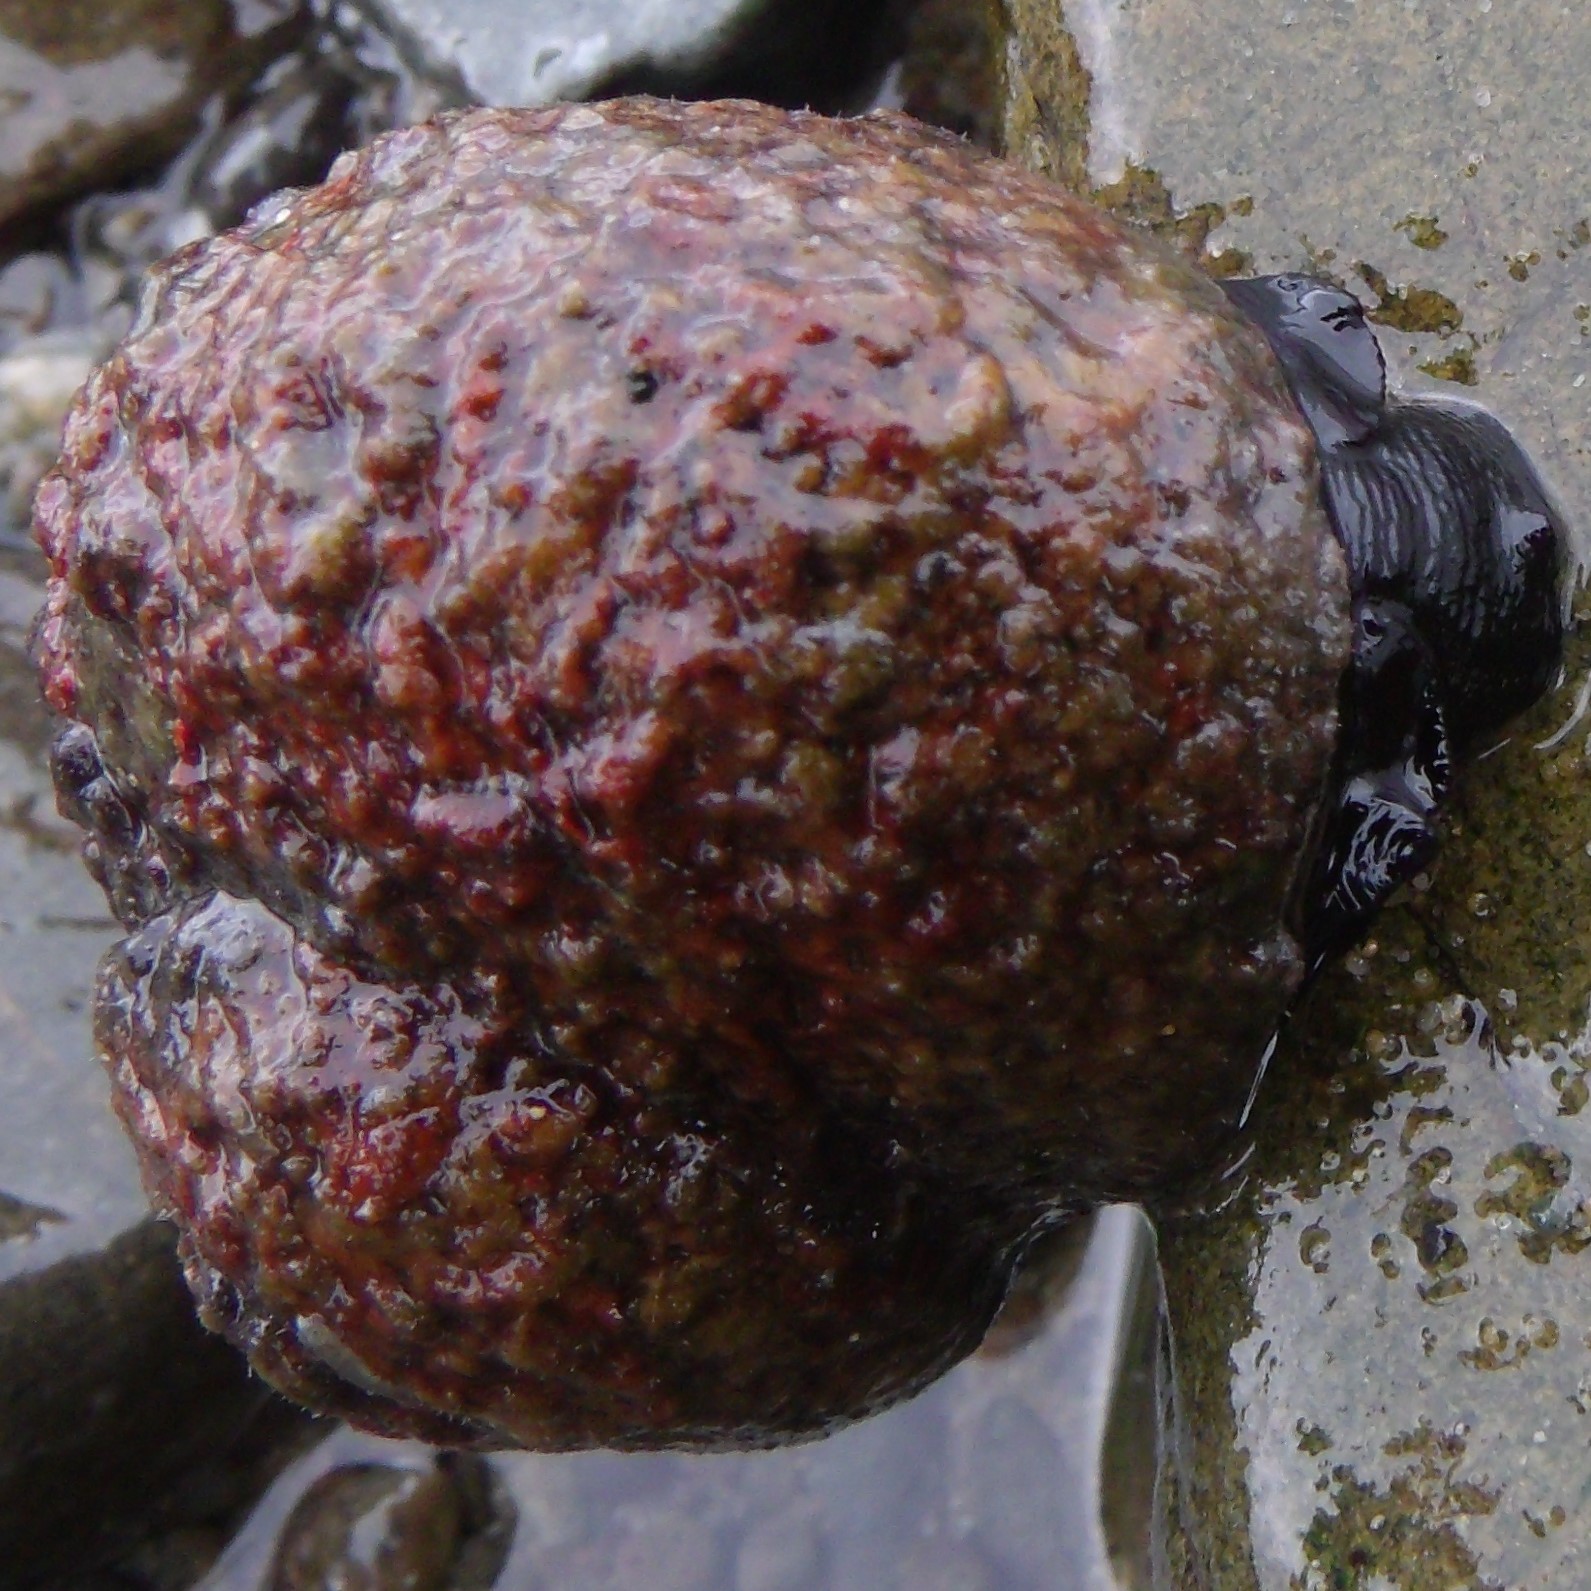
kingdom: Animalia
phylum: Mollusca
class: Gastropoda
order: Trochida
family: Turbinidae
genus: Lunella
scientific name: Lunella smaragda
